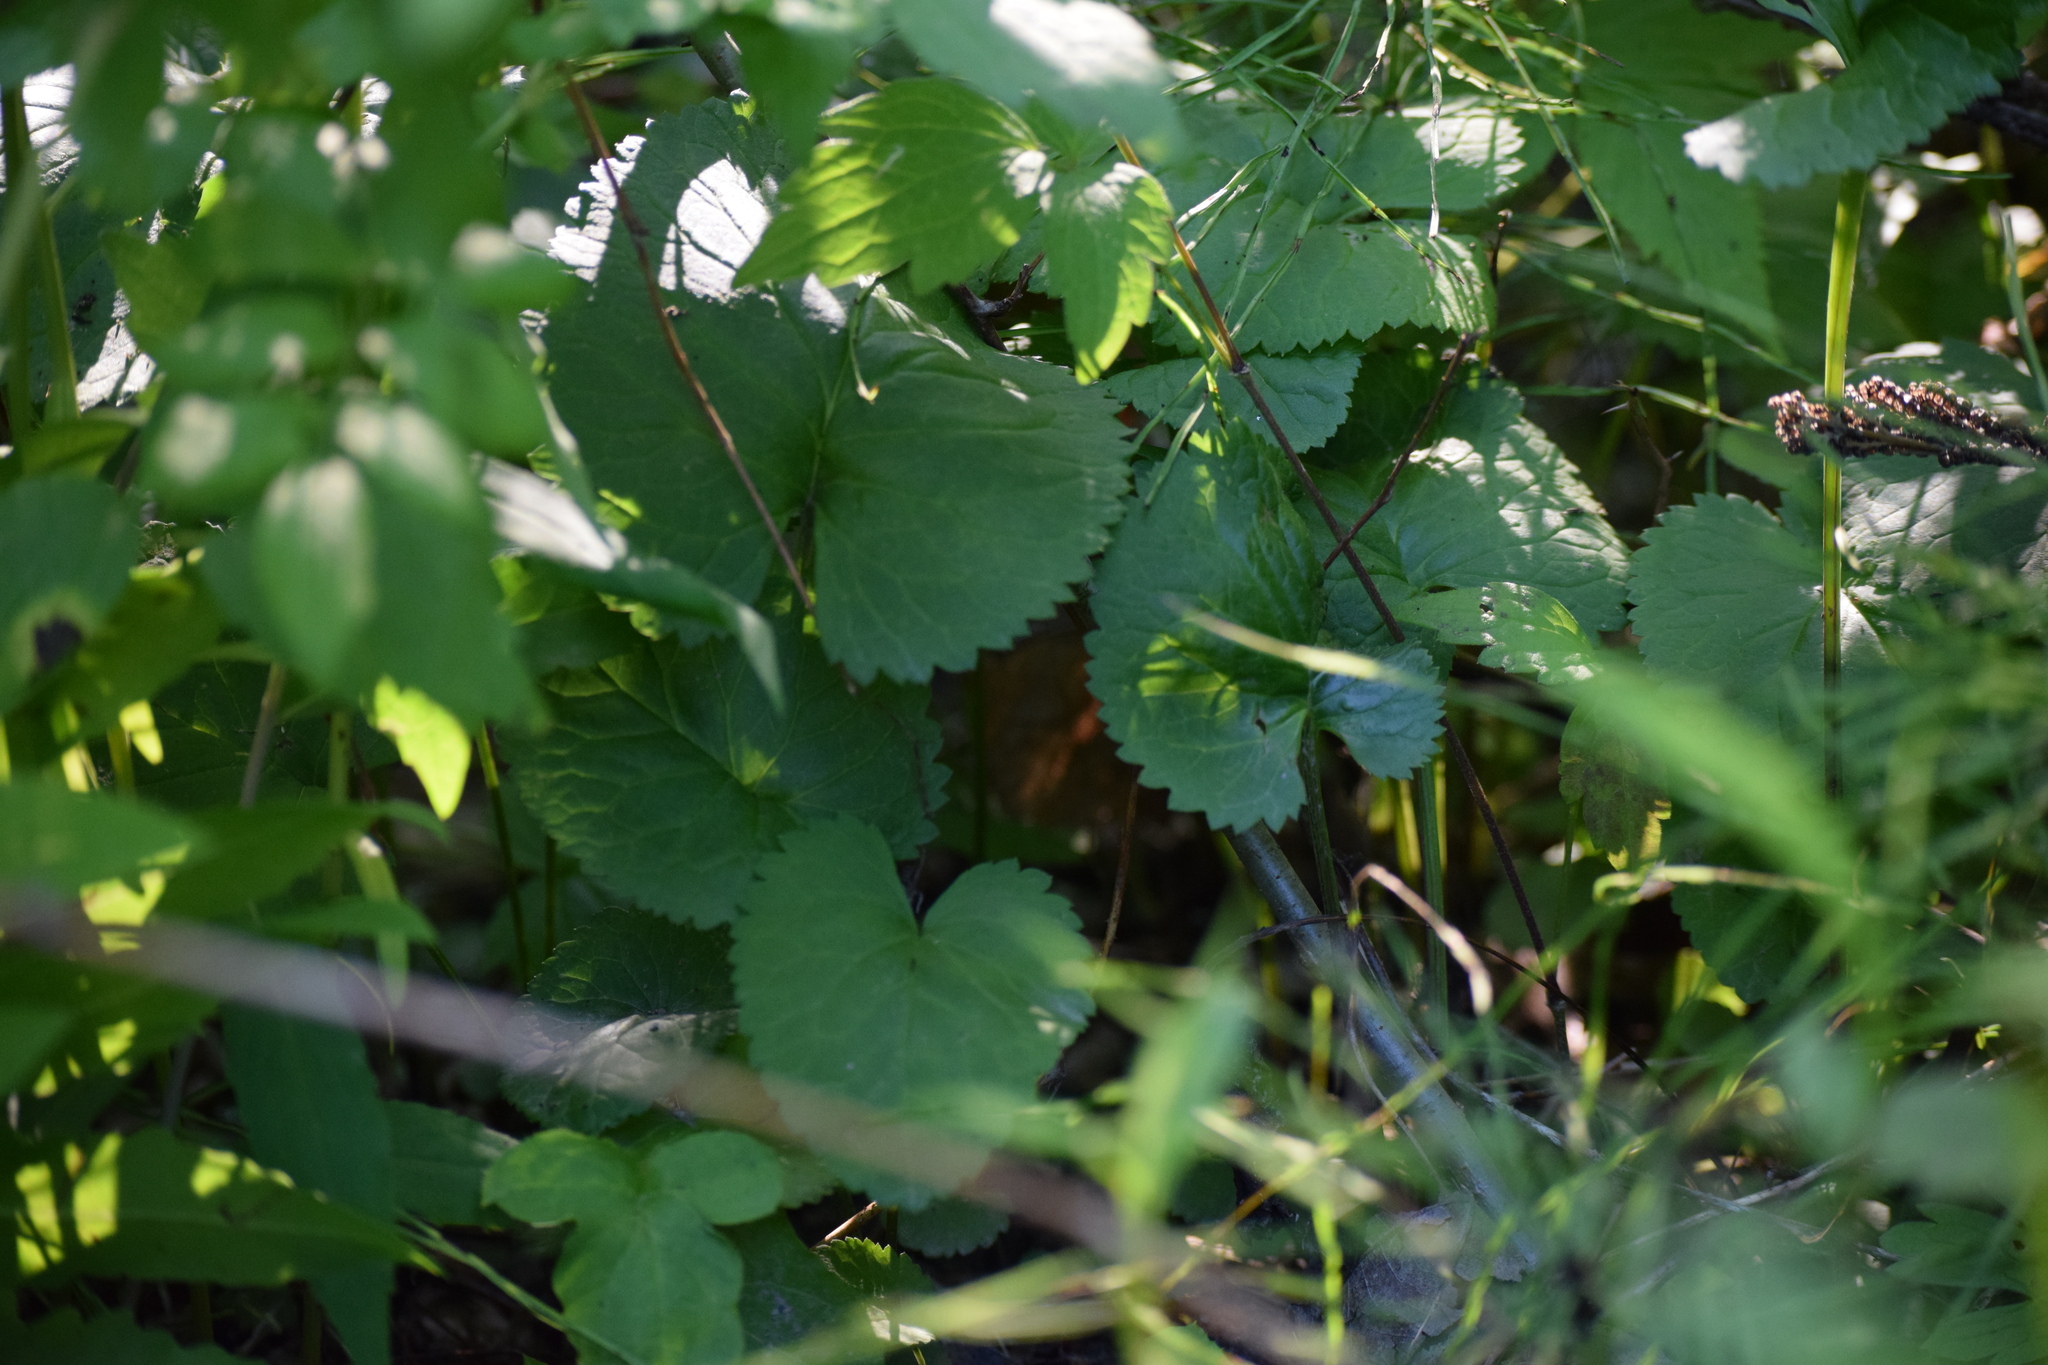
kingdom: Plantae
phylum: Tracheophyta
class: Magnoliopsida
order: Asterales
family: Asteraceae
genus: Packera
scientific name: Packera aurea
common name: Golden groundsel
